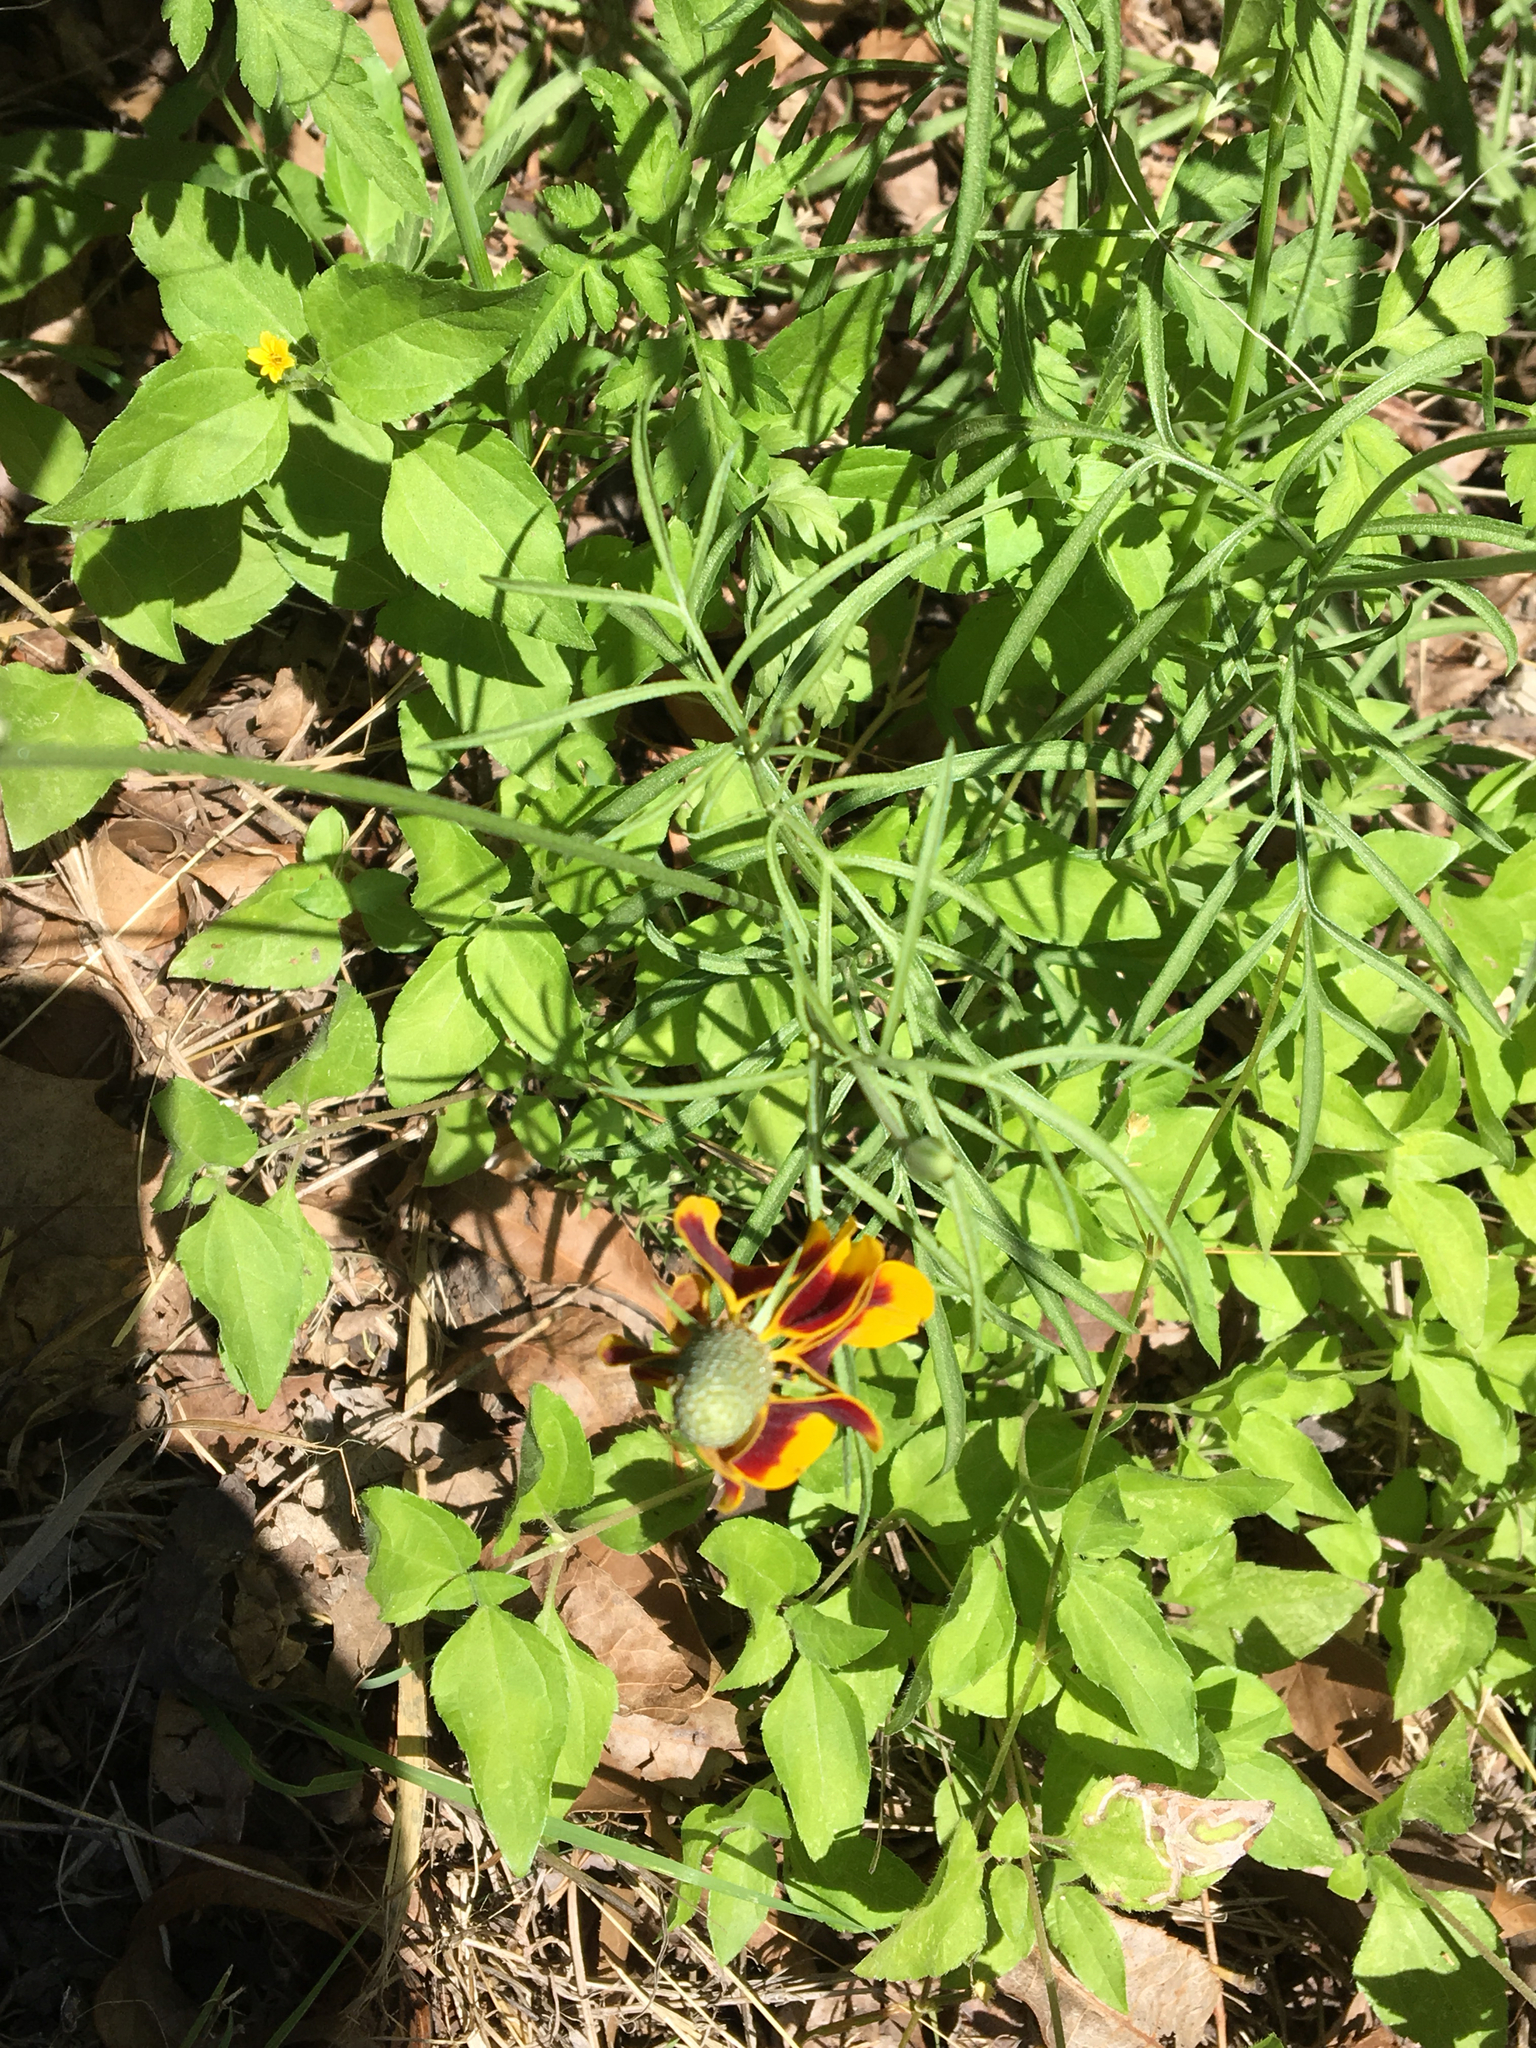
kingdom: Plantae
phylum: Tracheophyta
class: Magnoliopsida
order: Asterales
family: Asteraceae
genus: Calyptocarpus
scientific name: Calyptocarpus vialis
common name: Straggler daisy
